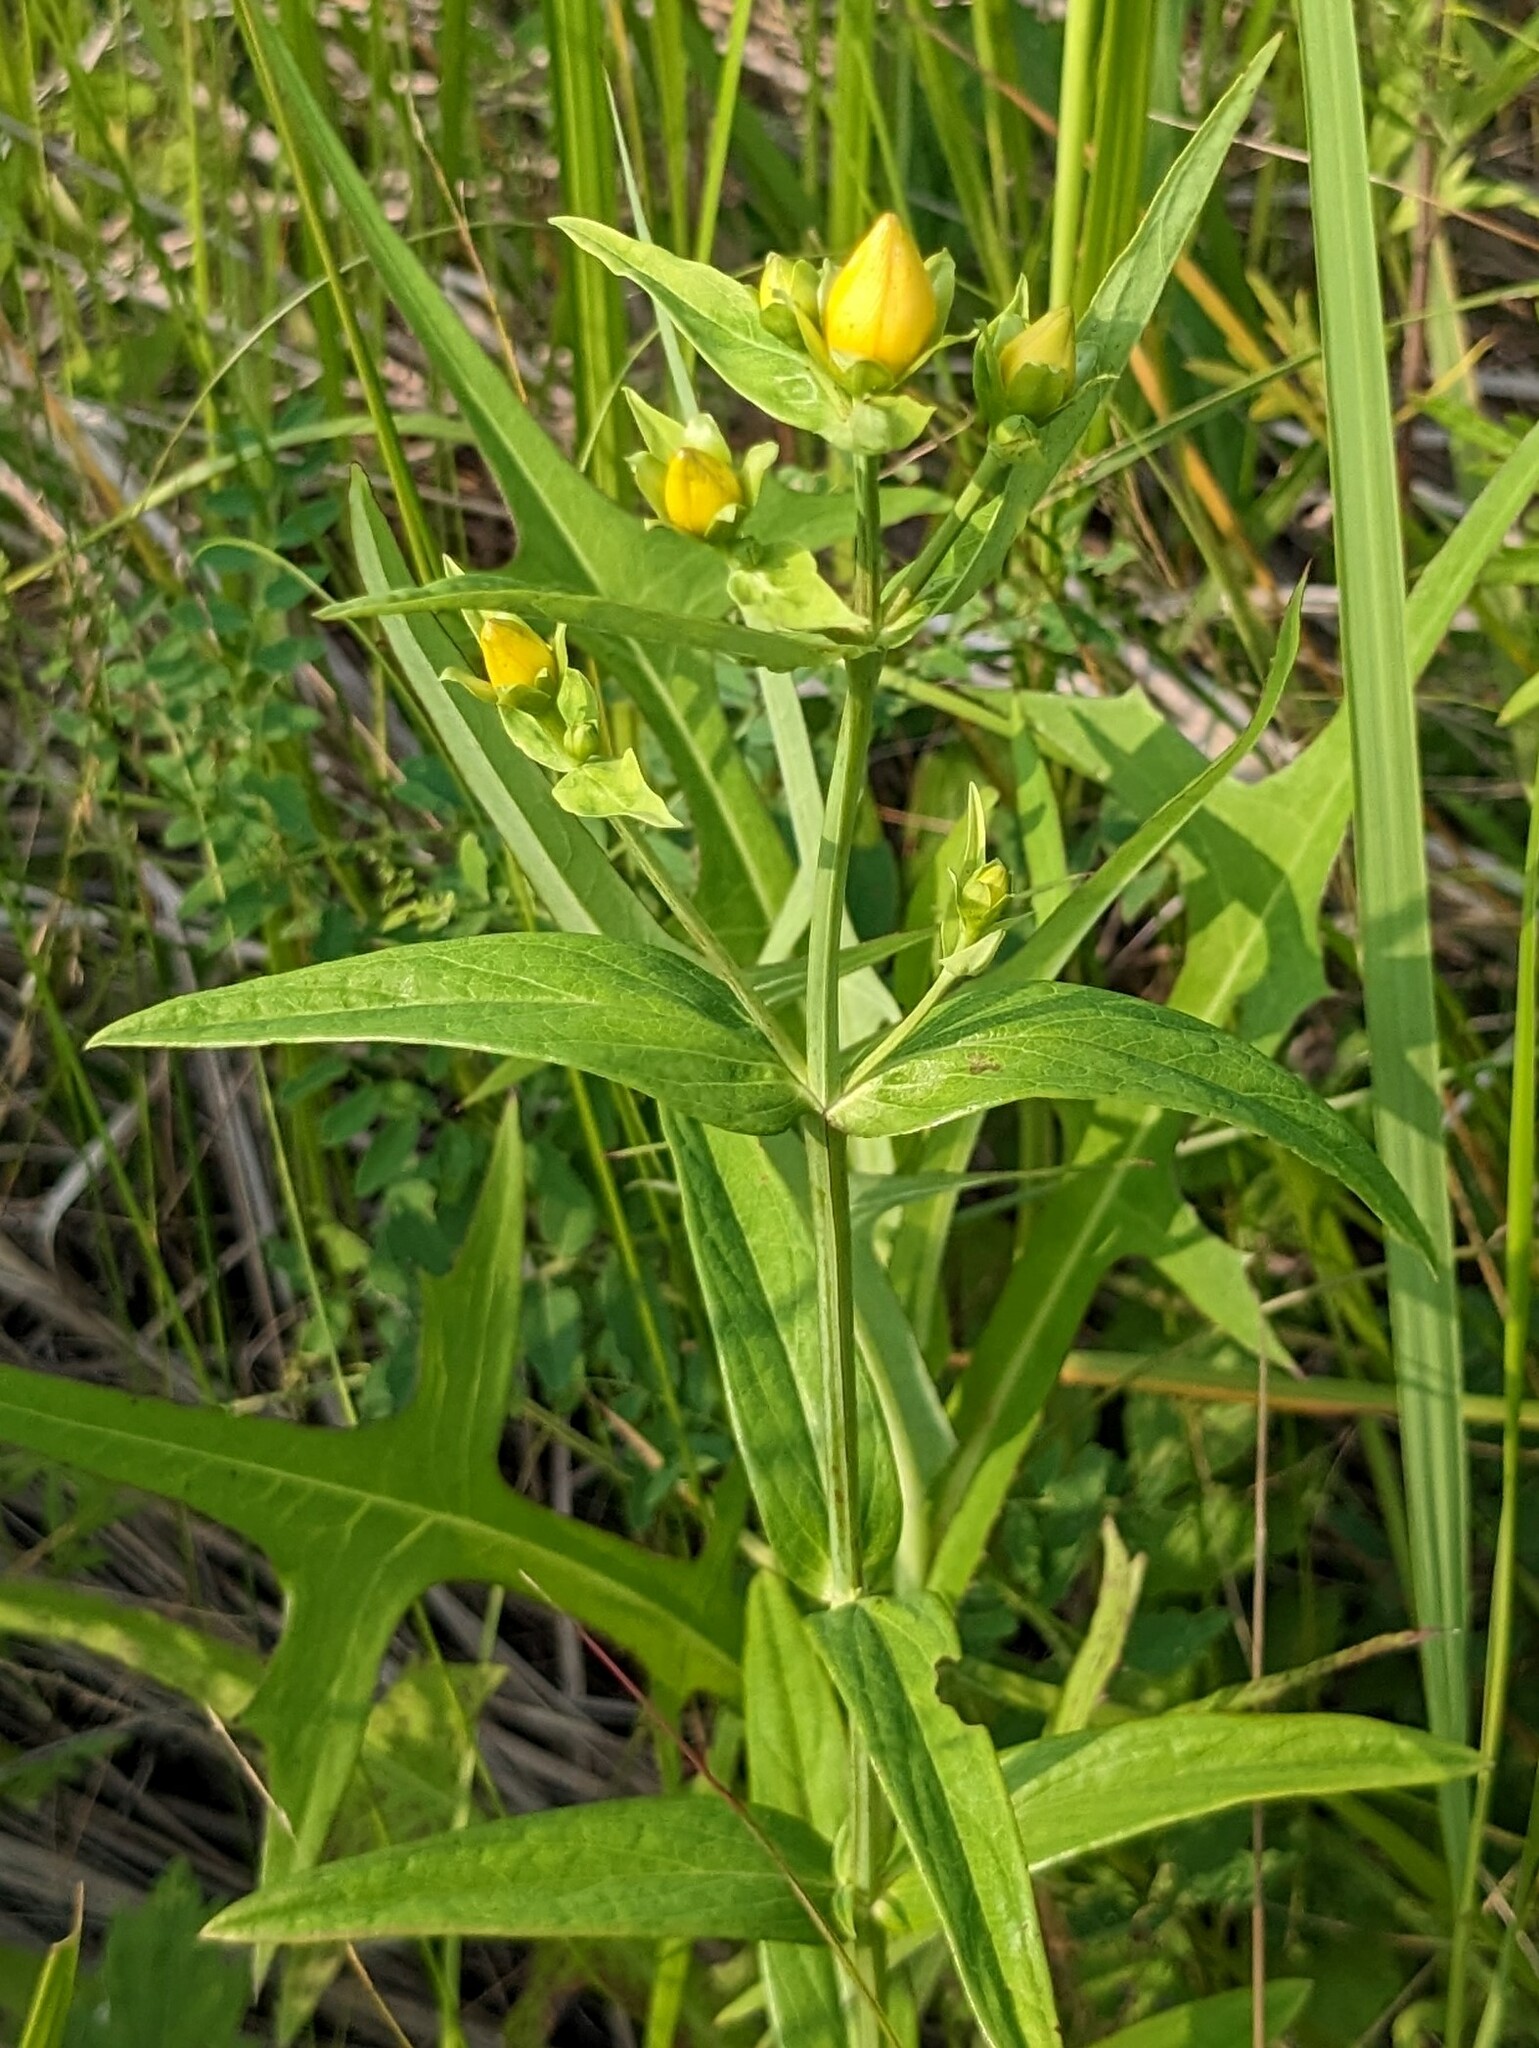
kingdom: Plantae
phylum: Tracheophyta
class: Magnoliopsida
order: Malpighiales
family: Hypericaceae
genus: Hypericum
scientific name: Hypericum ascyron
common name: Giant st. john's-wort
